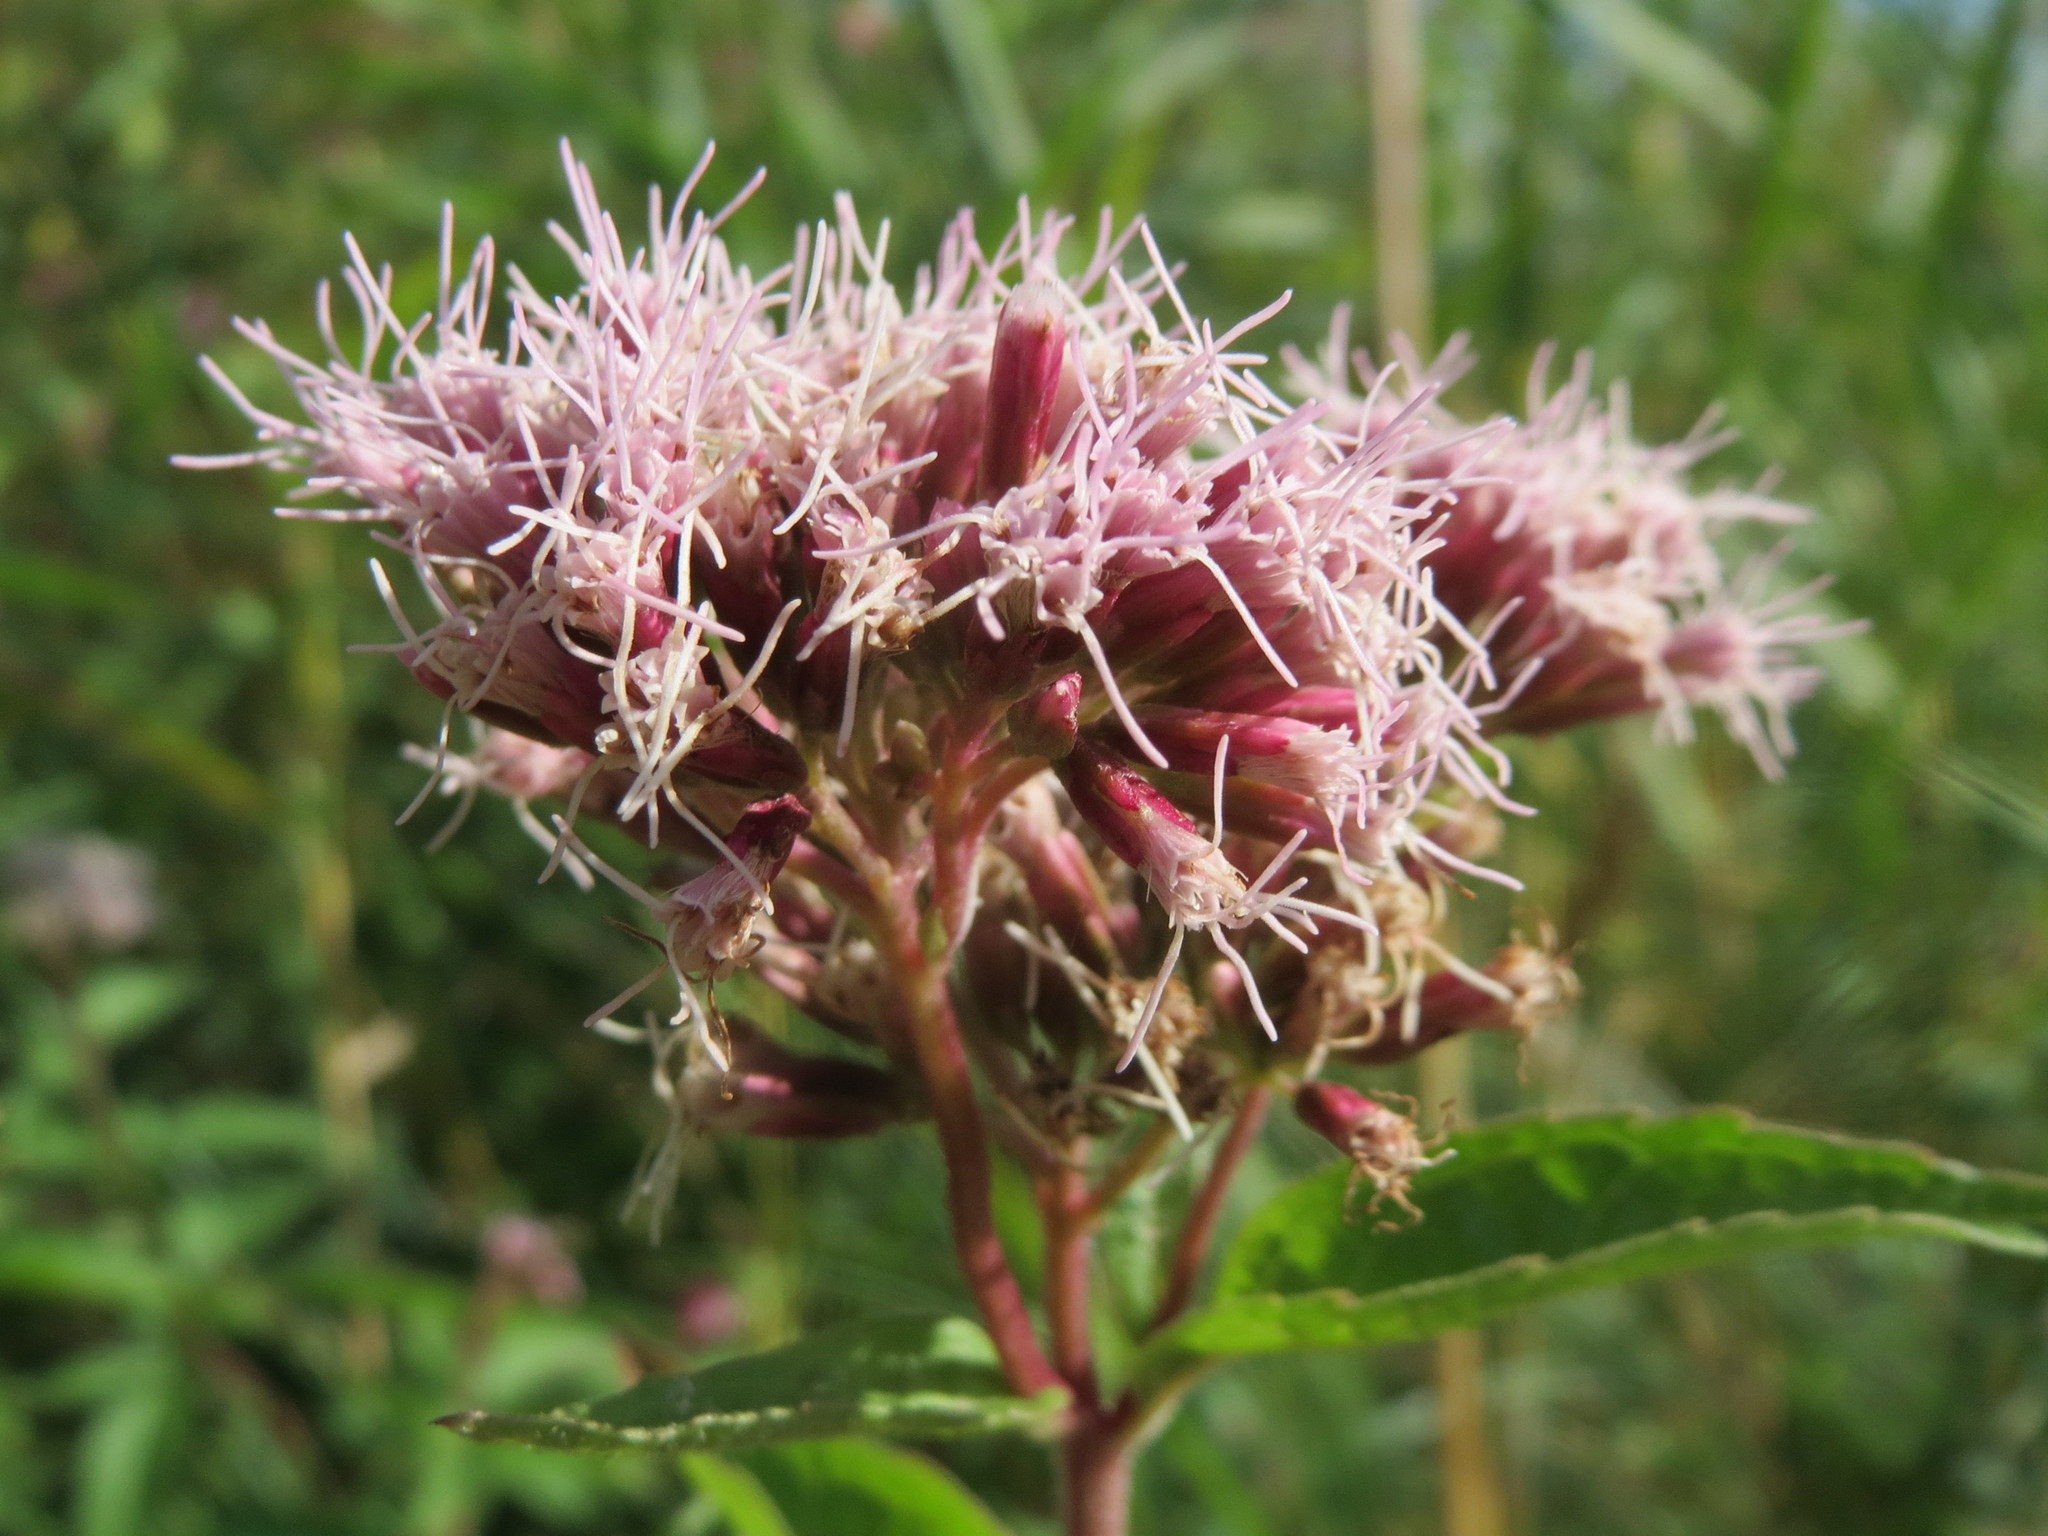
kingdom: Plantae
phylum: Tracheophyta
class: Magnoliopsida
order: Asterales
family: Asteraceae
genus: Eupatorium
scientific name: Eupatorium cannabinum
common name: Hemp-agrimony
